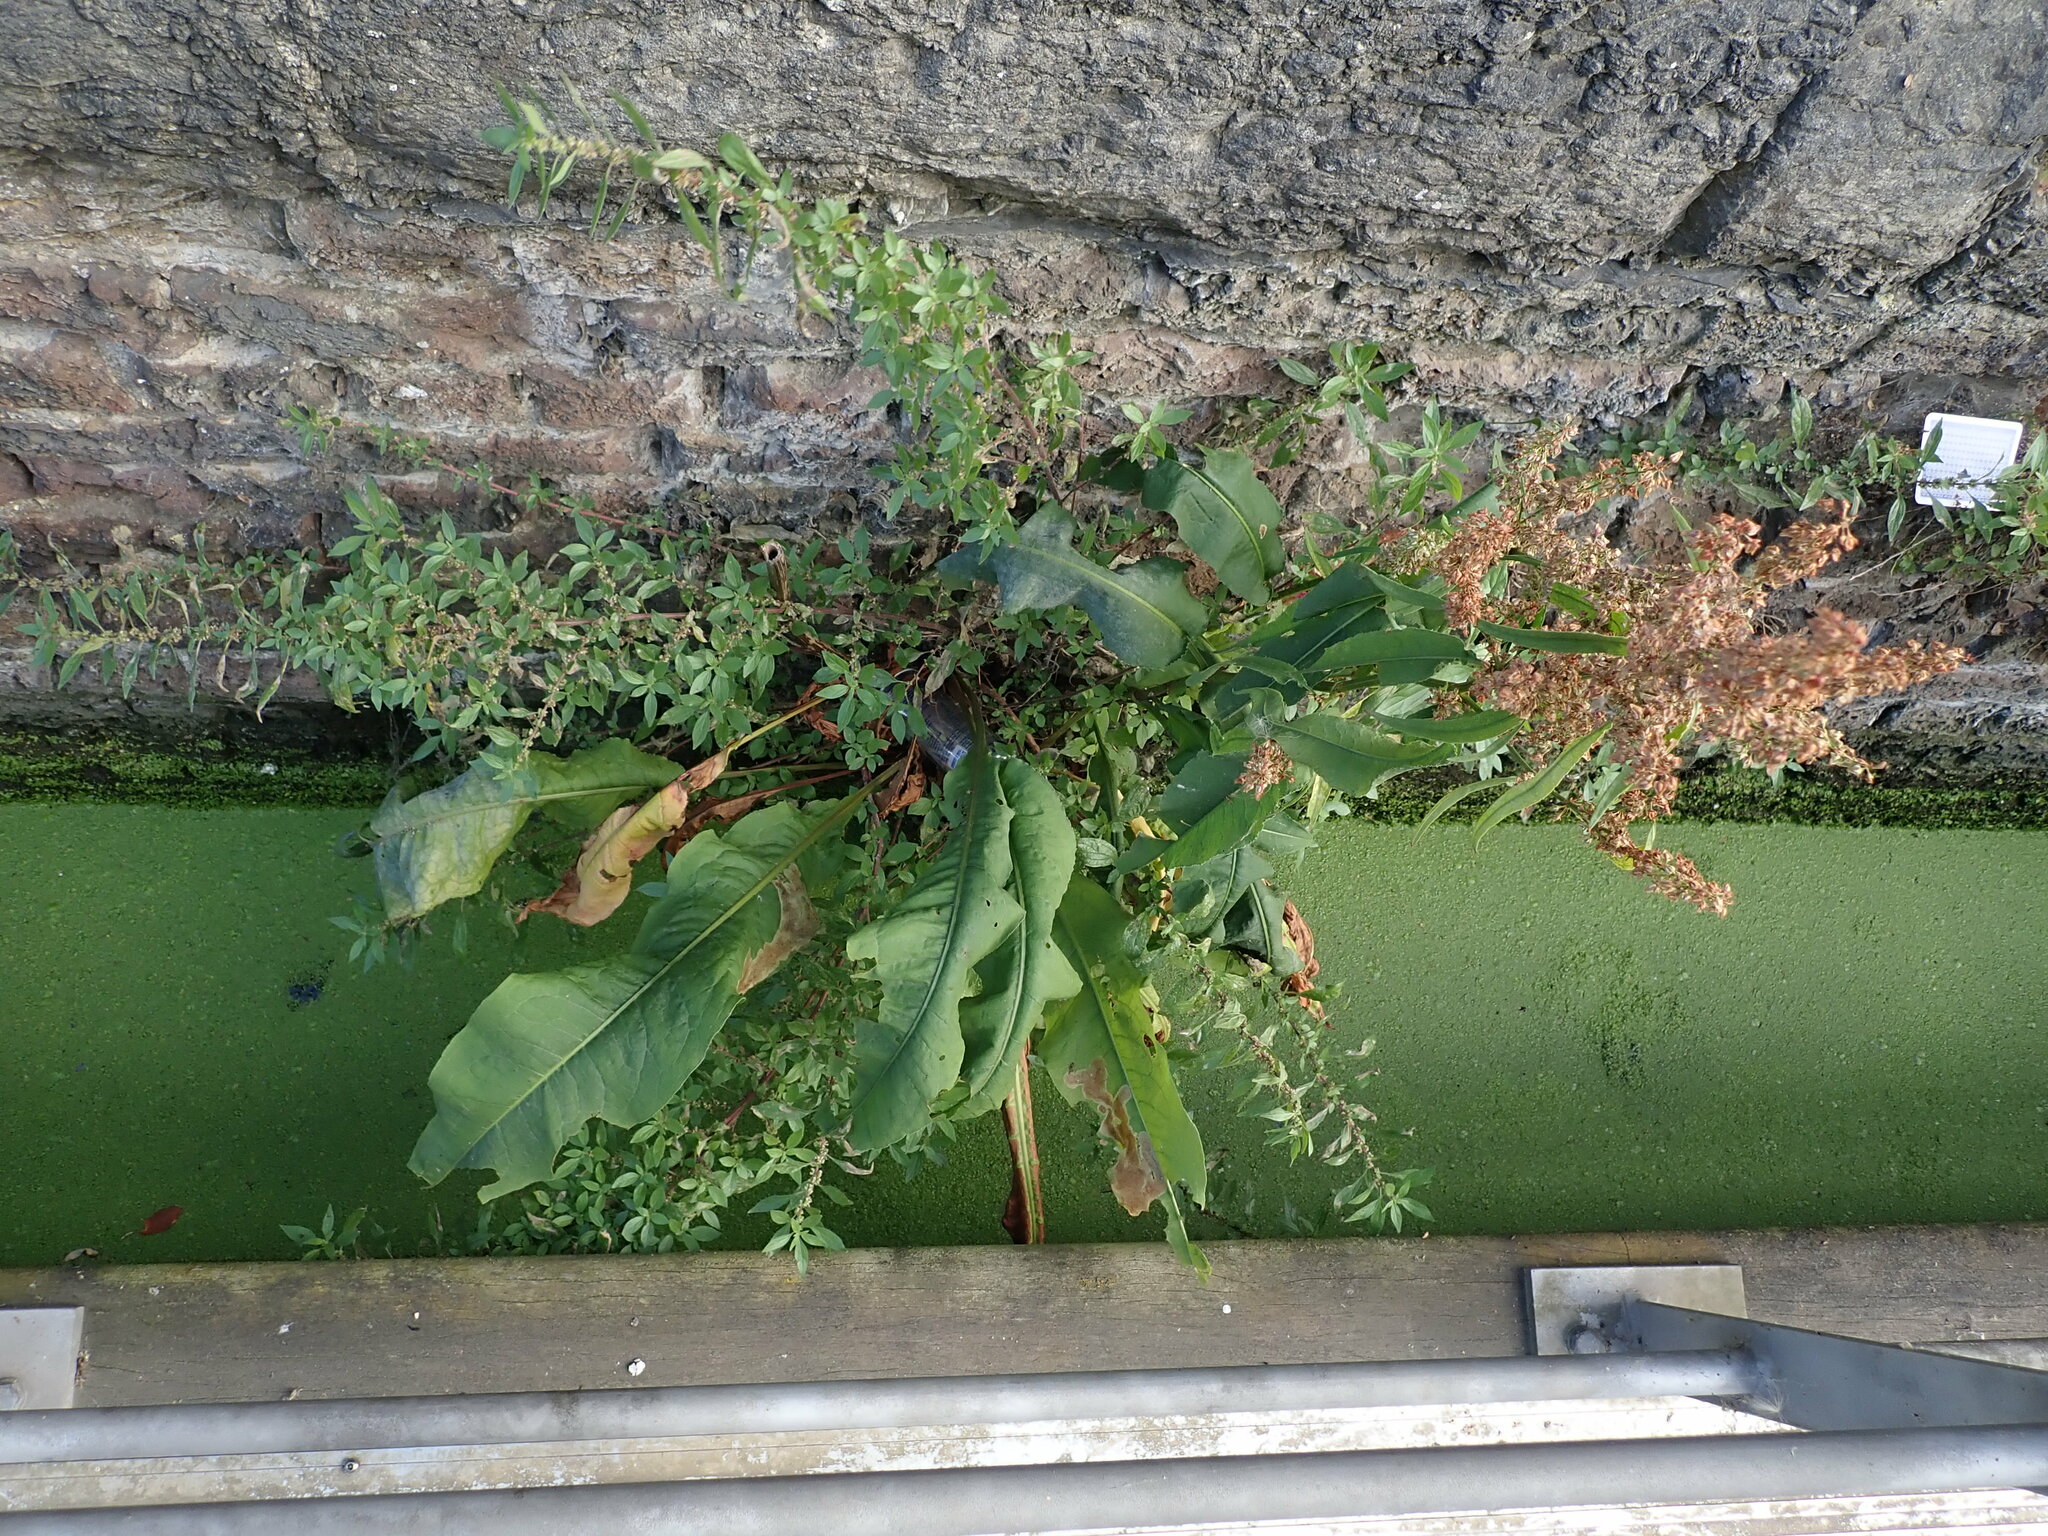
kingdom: Plantae
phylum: Tracheophyta
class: Magnoliopsida
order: Caryophyllales
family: Polygonaceae
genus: Rumex
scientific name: Rumex hydrolapathum
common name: Water dock
